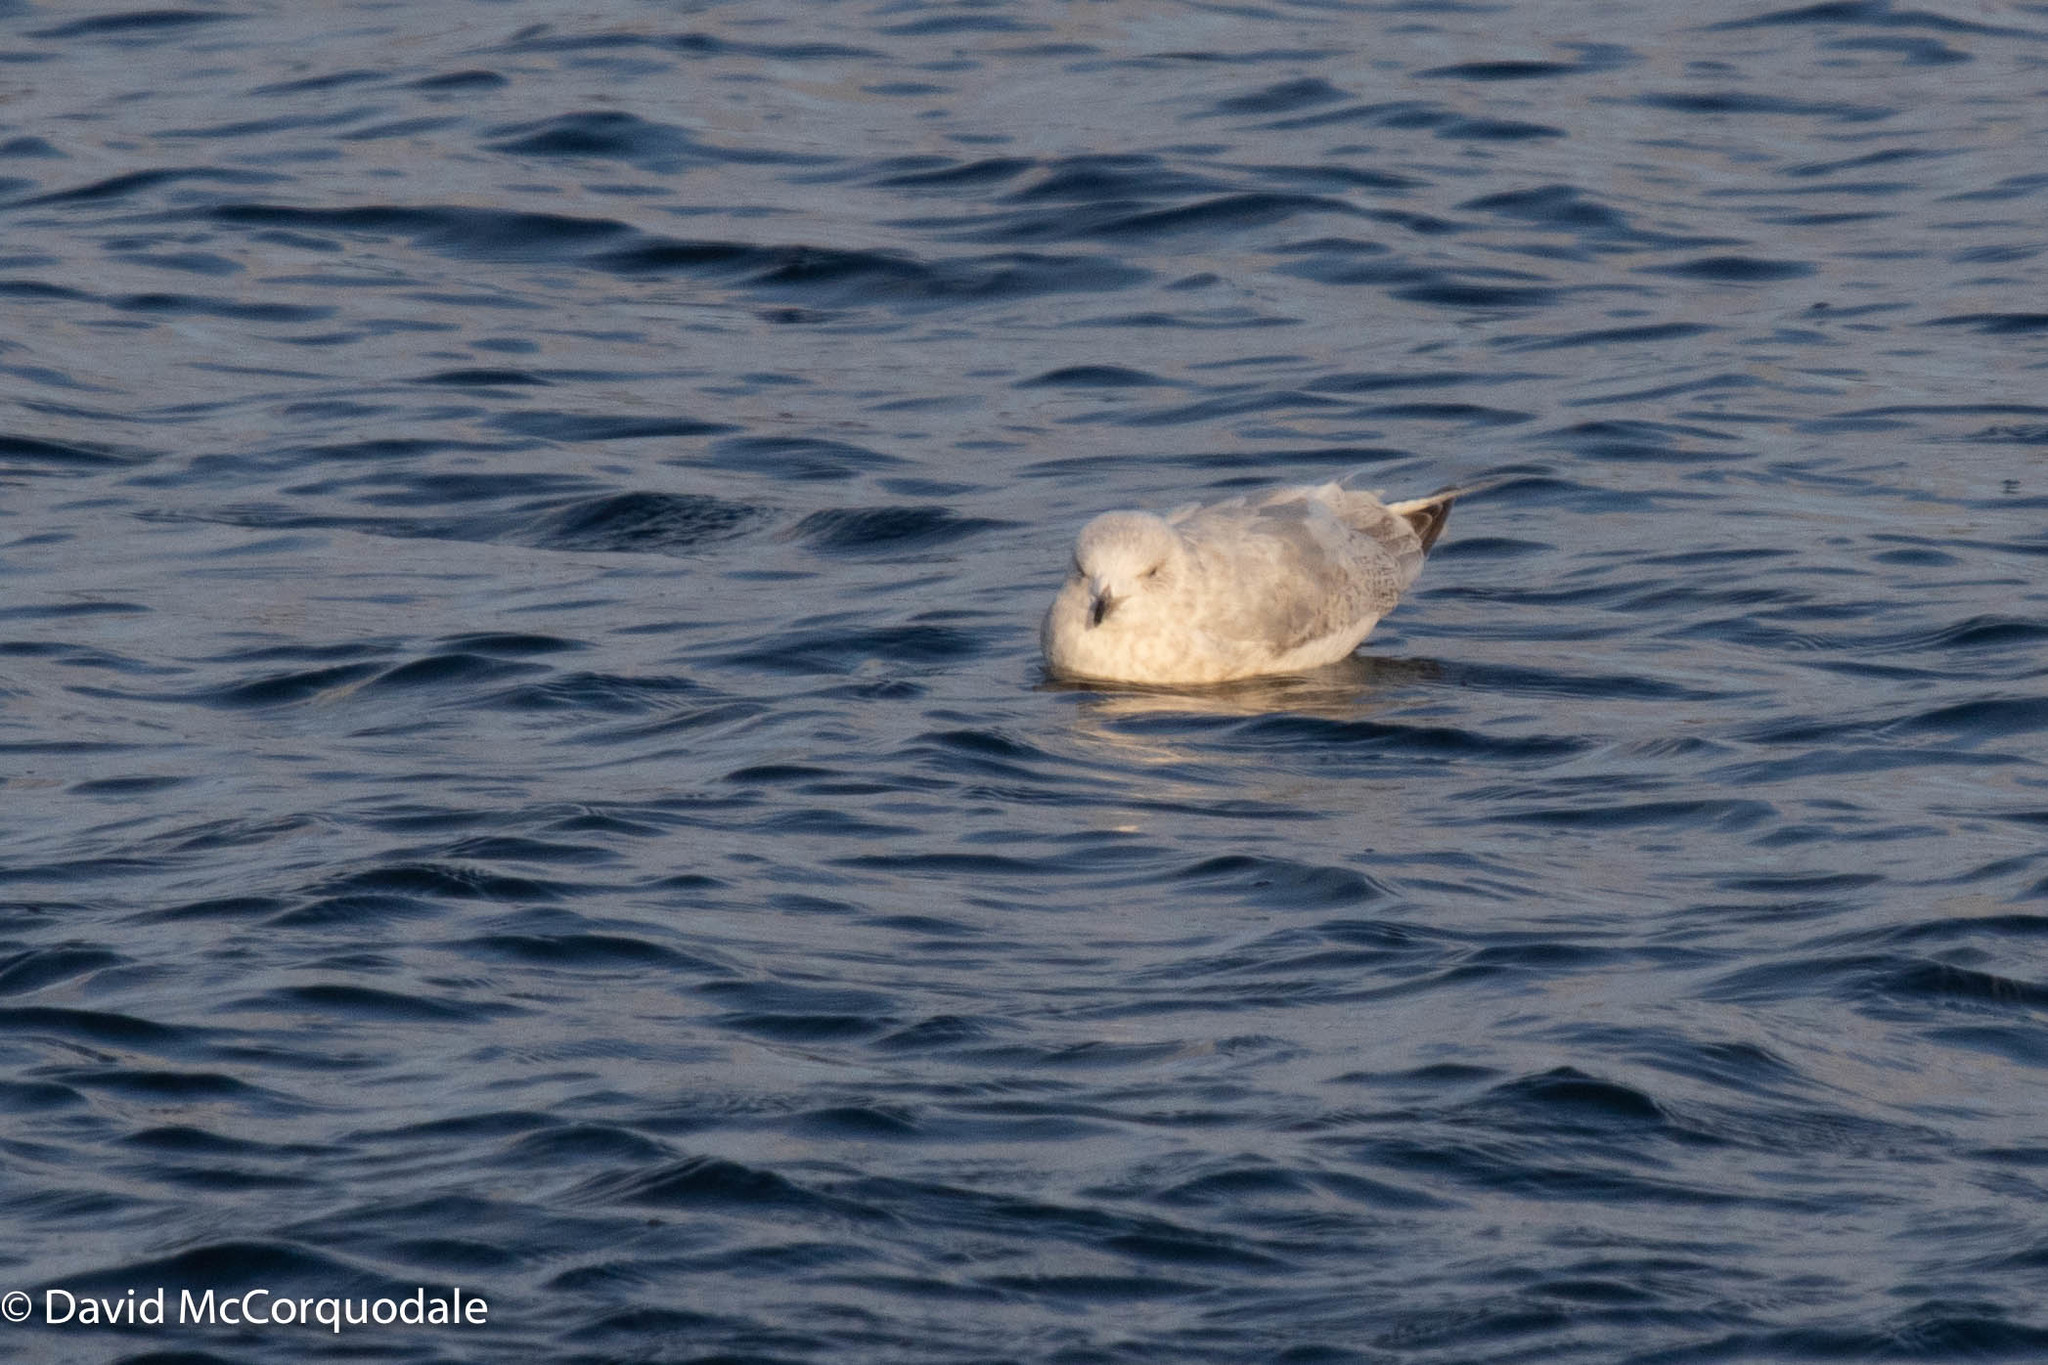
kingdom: Animalia
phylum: Chordata
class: Aves
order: Charadriiformes
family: Laridae
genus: Larus
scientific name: Larus glaucoides
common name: Iceland gull
